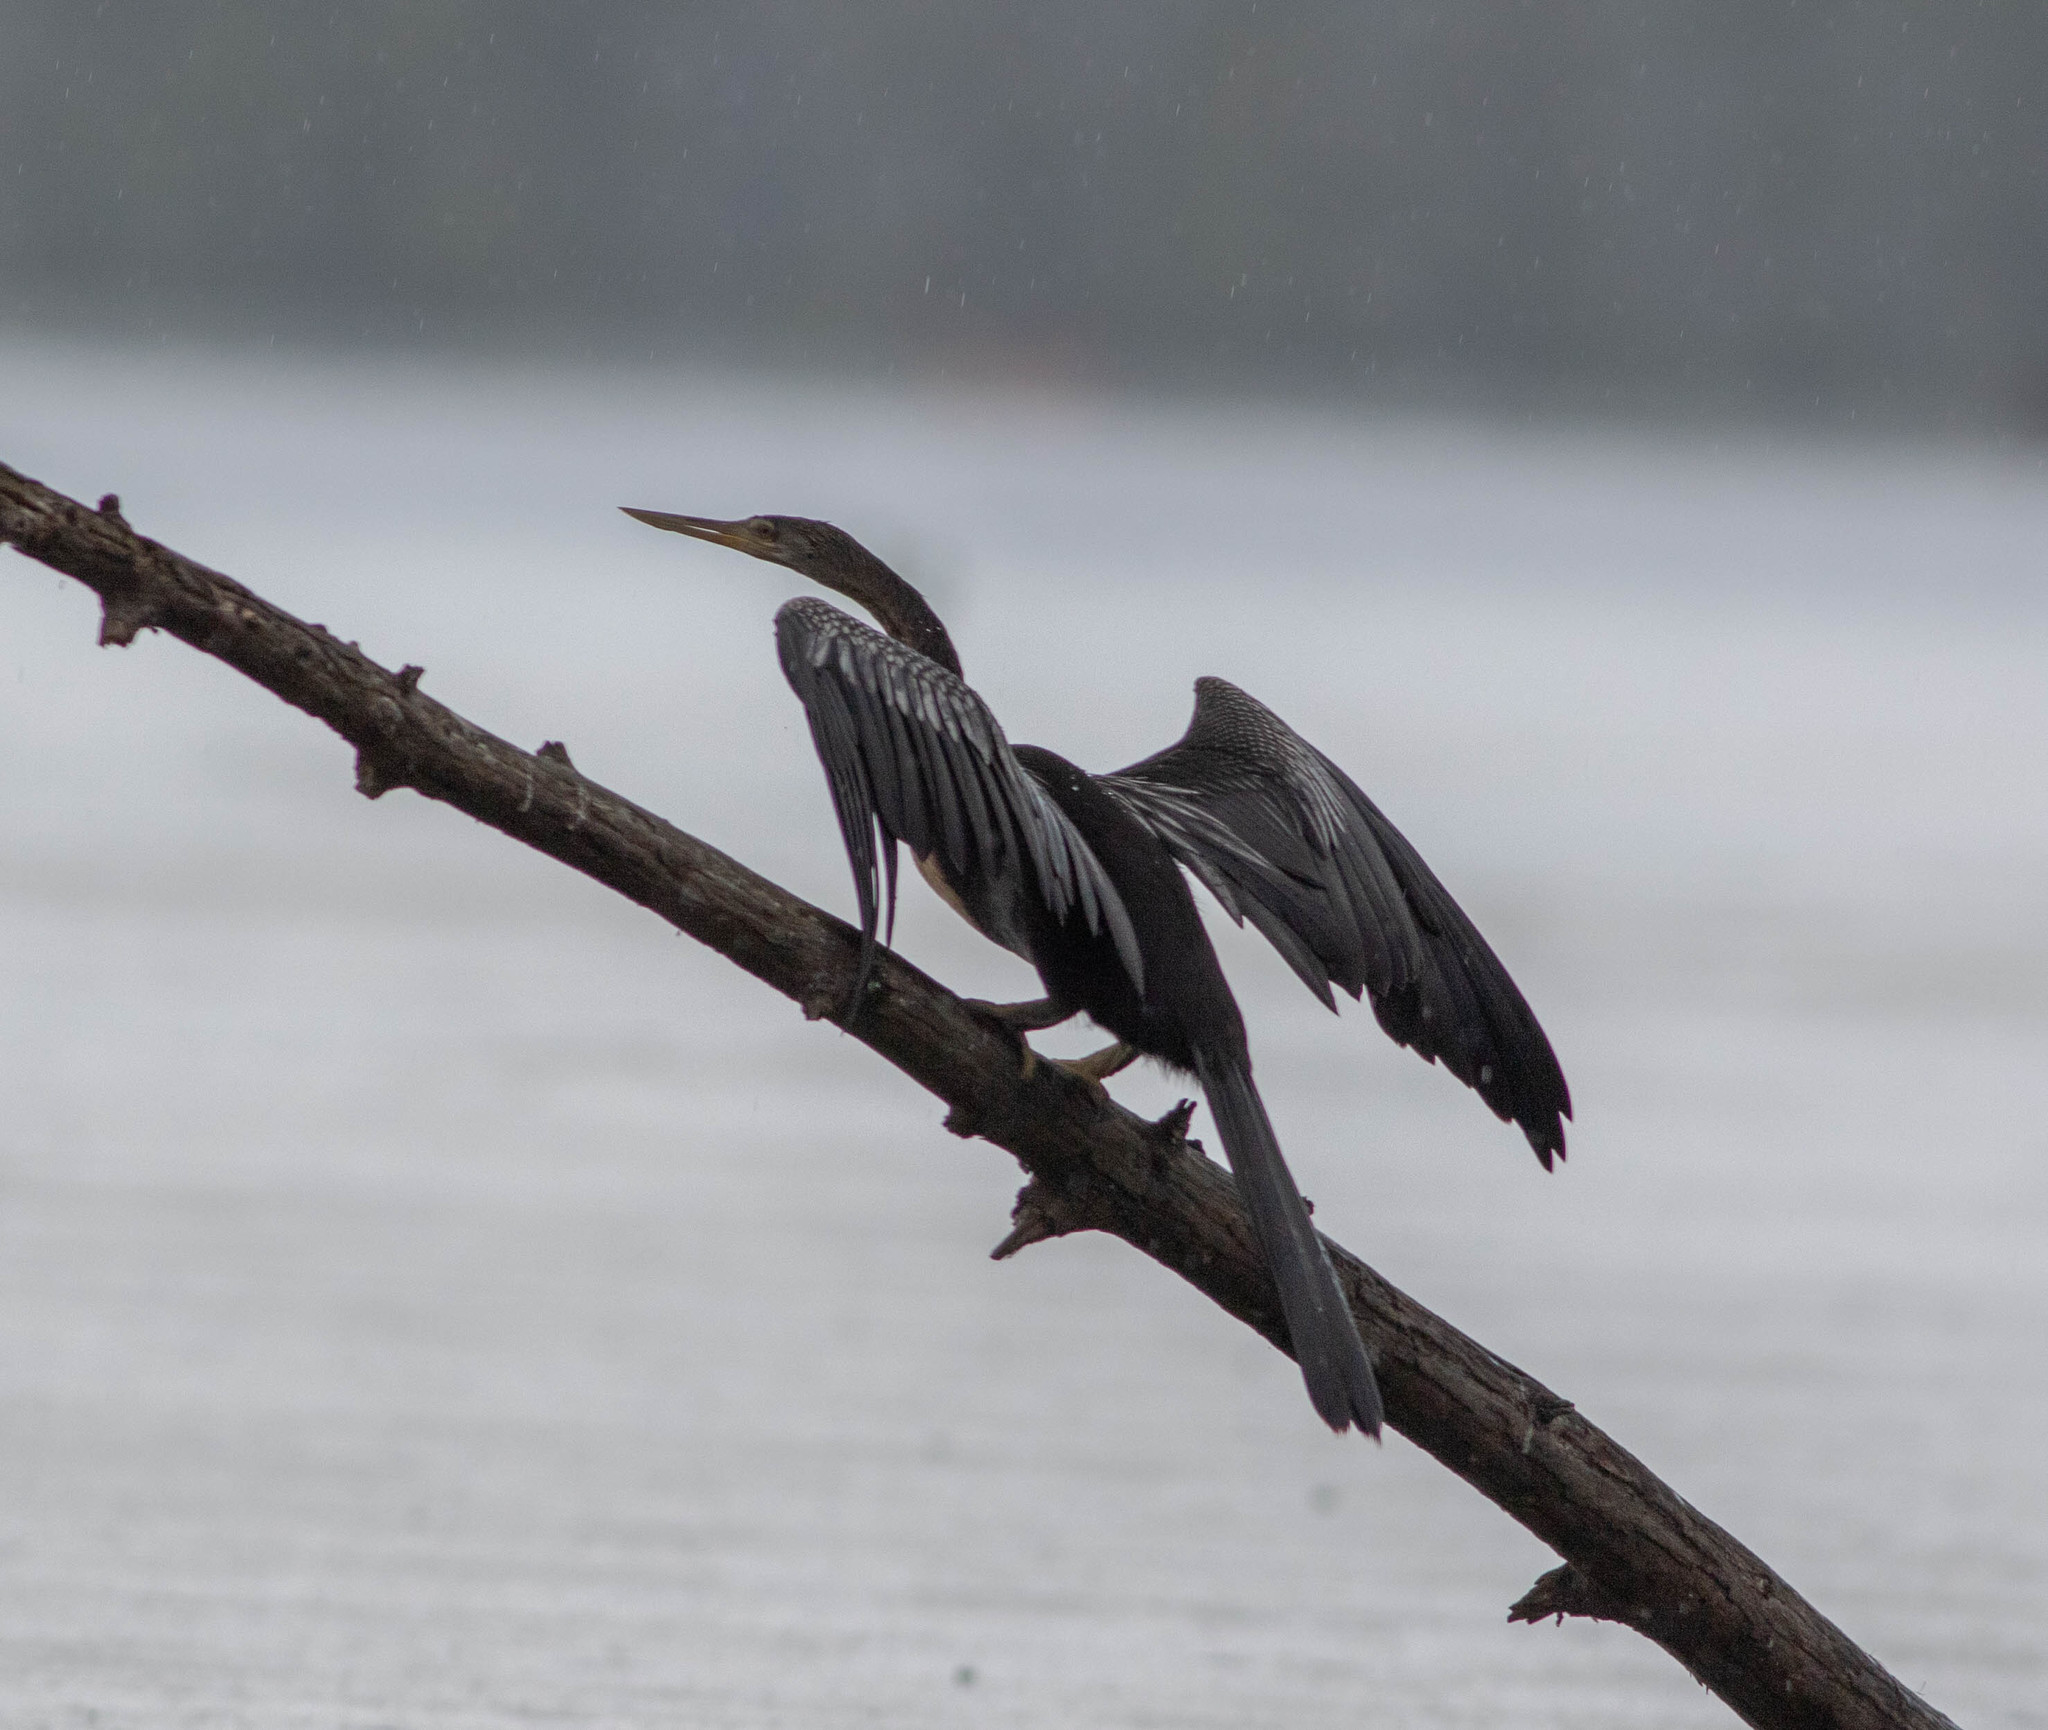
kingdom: Animalia
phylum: Chordata
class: Aves
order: Suliformes
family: Anhingidae
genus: Anhinga
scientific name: Anhinga anhinga
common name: Anhinga
